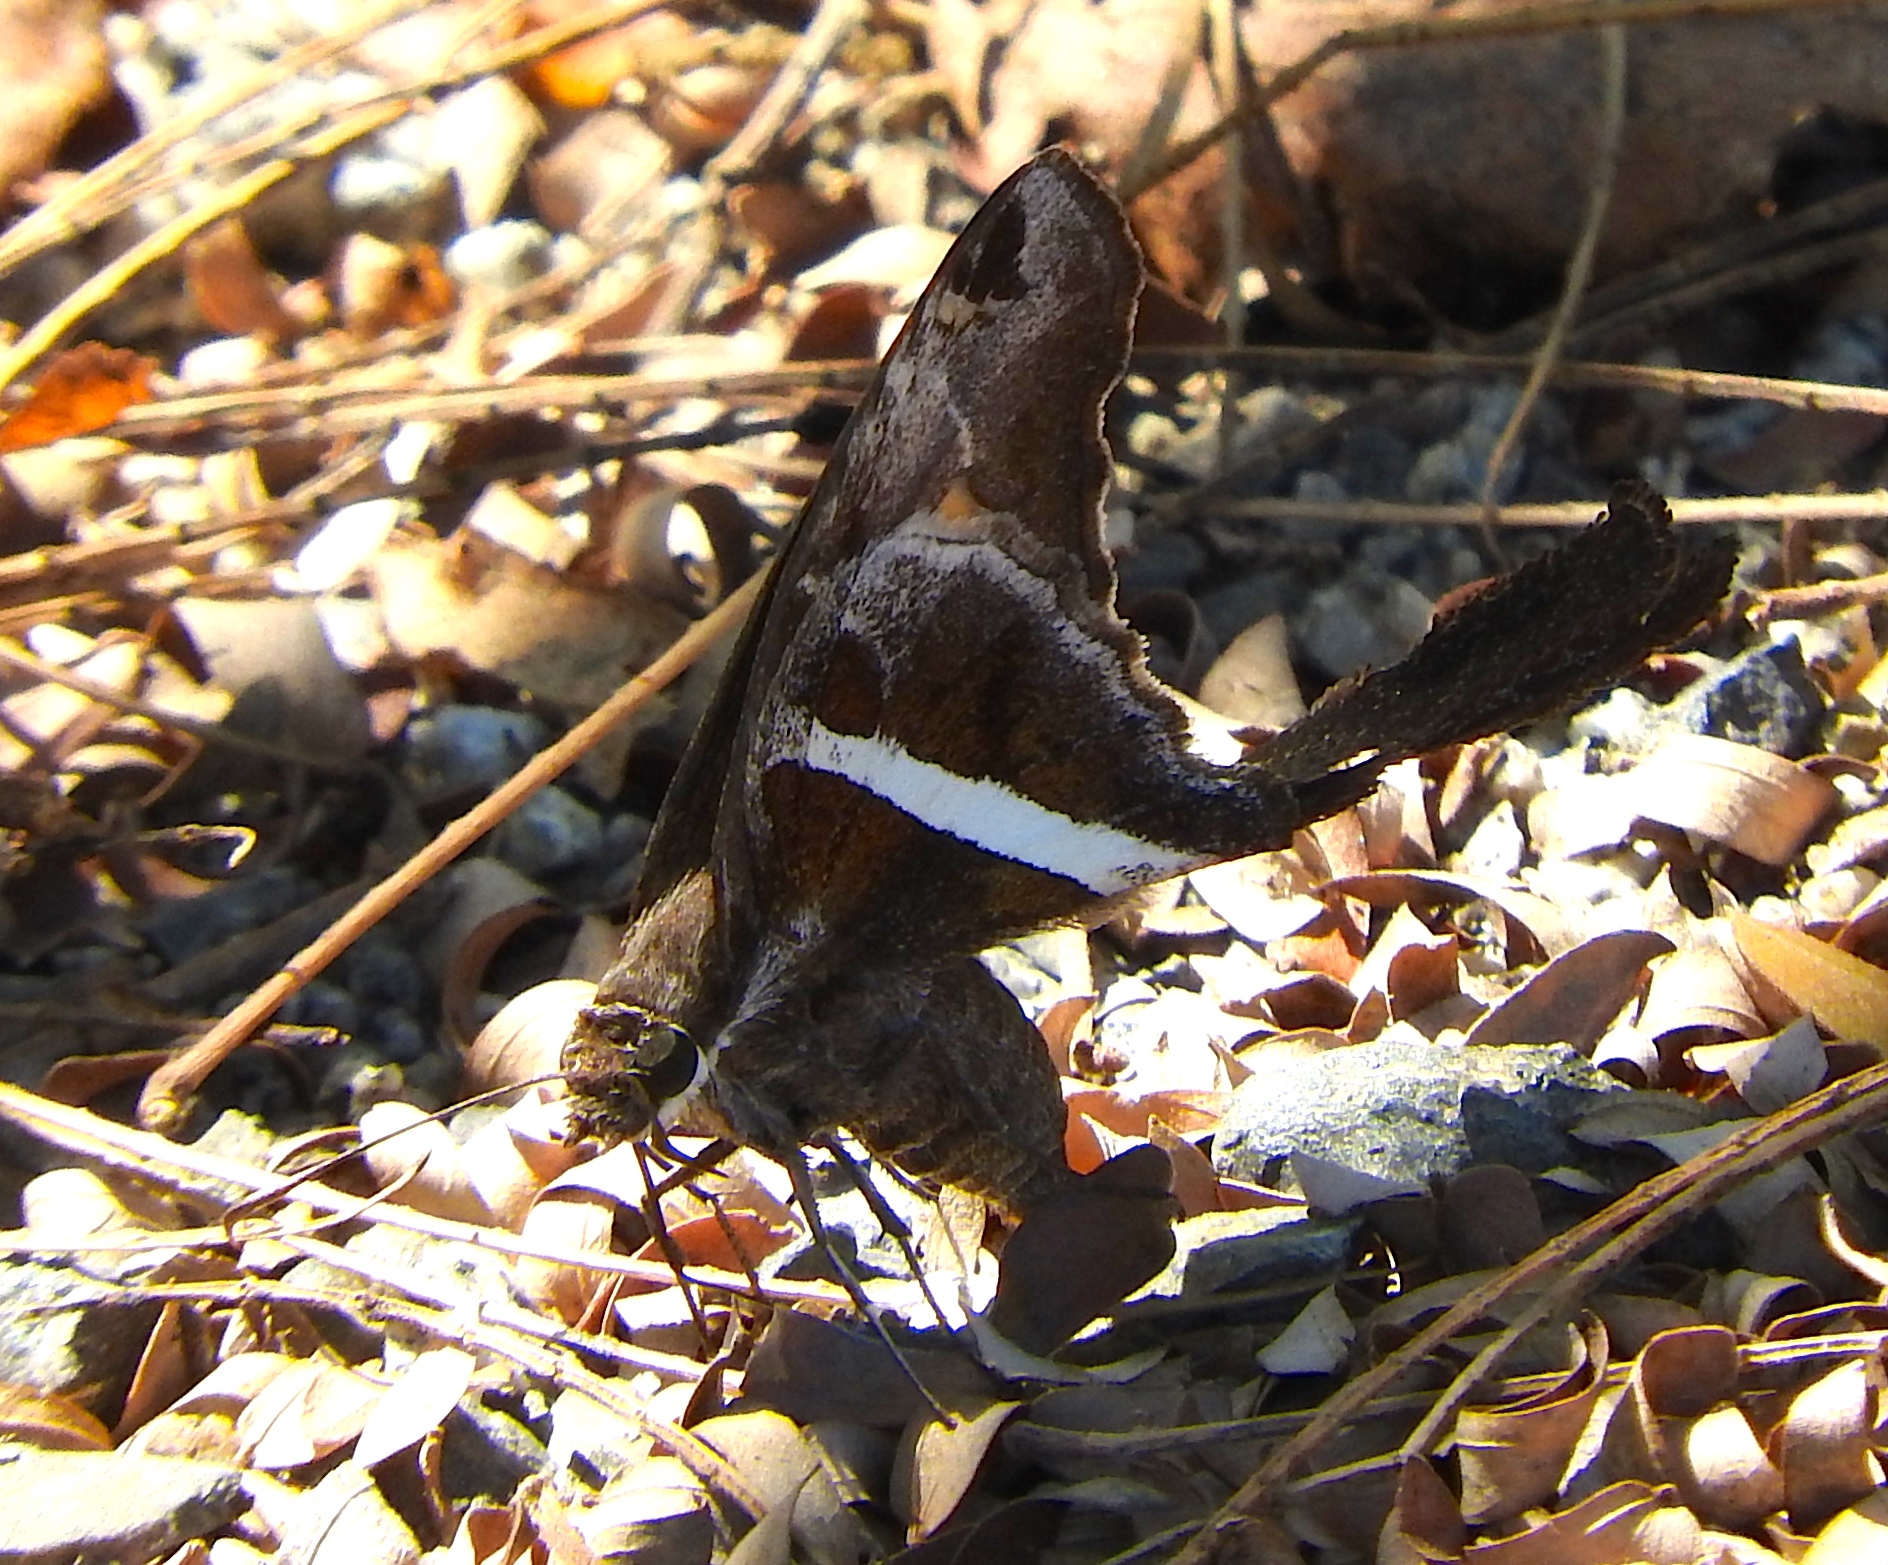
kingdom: Animalia
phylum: Arthropoda
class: Insecta
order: Lepidoptera
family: Hesperiidae
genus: Chioides
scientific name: Chioides catillus
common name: Silverbanded skipper
